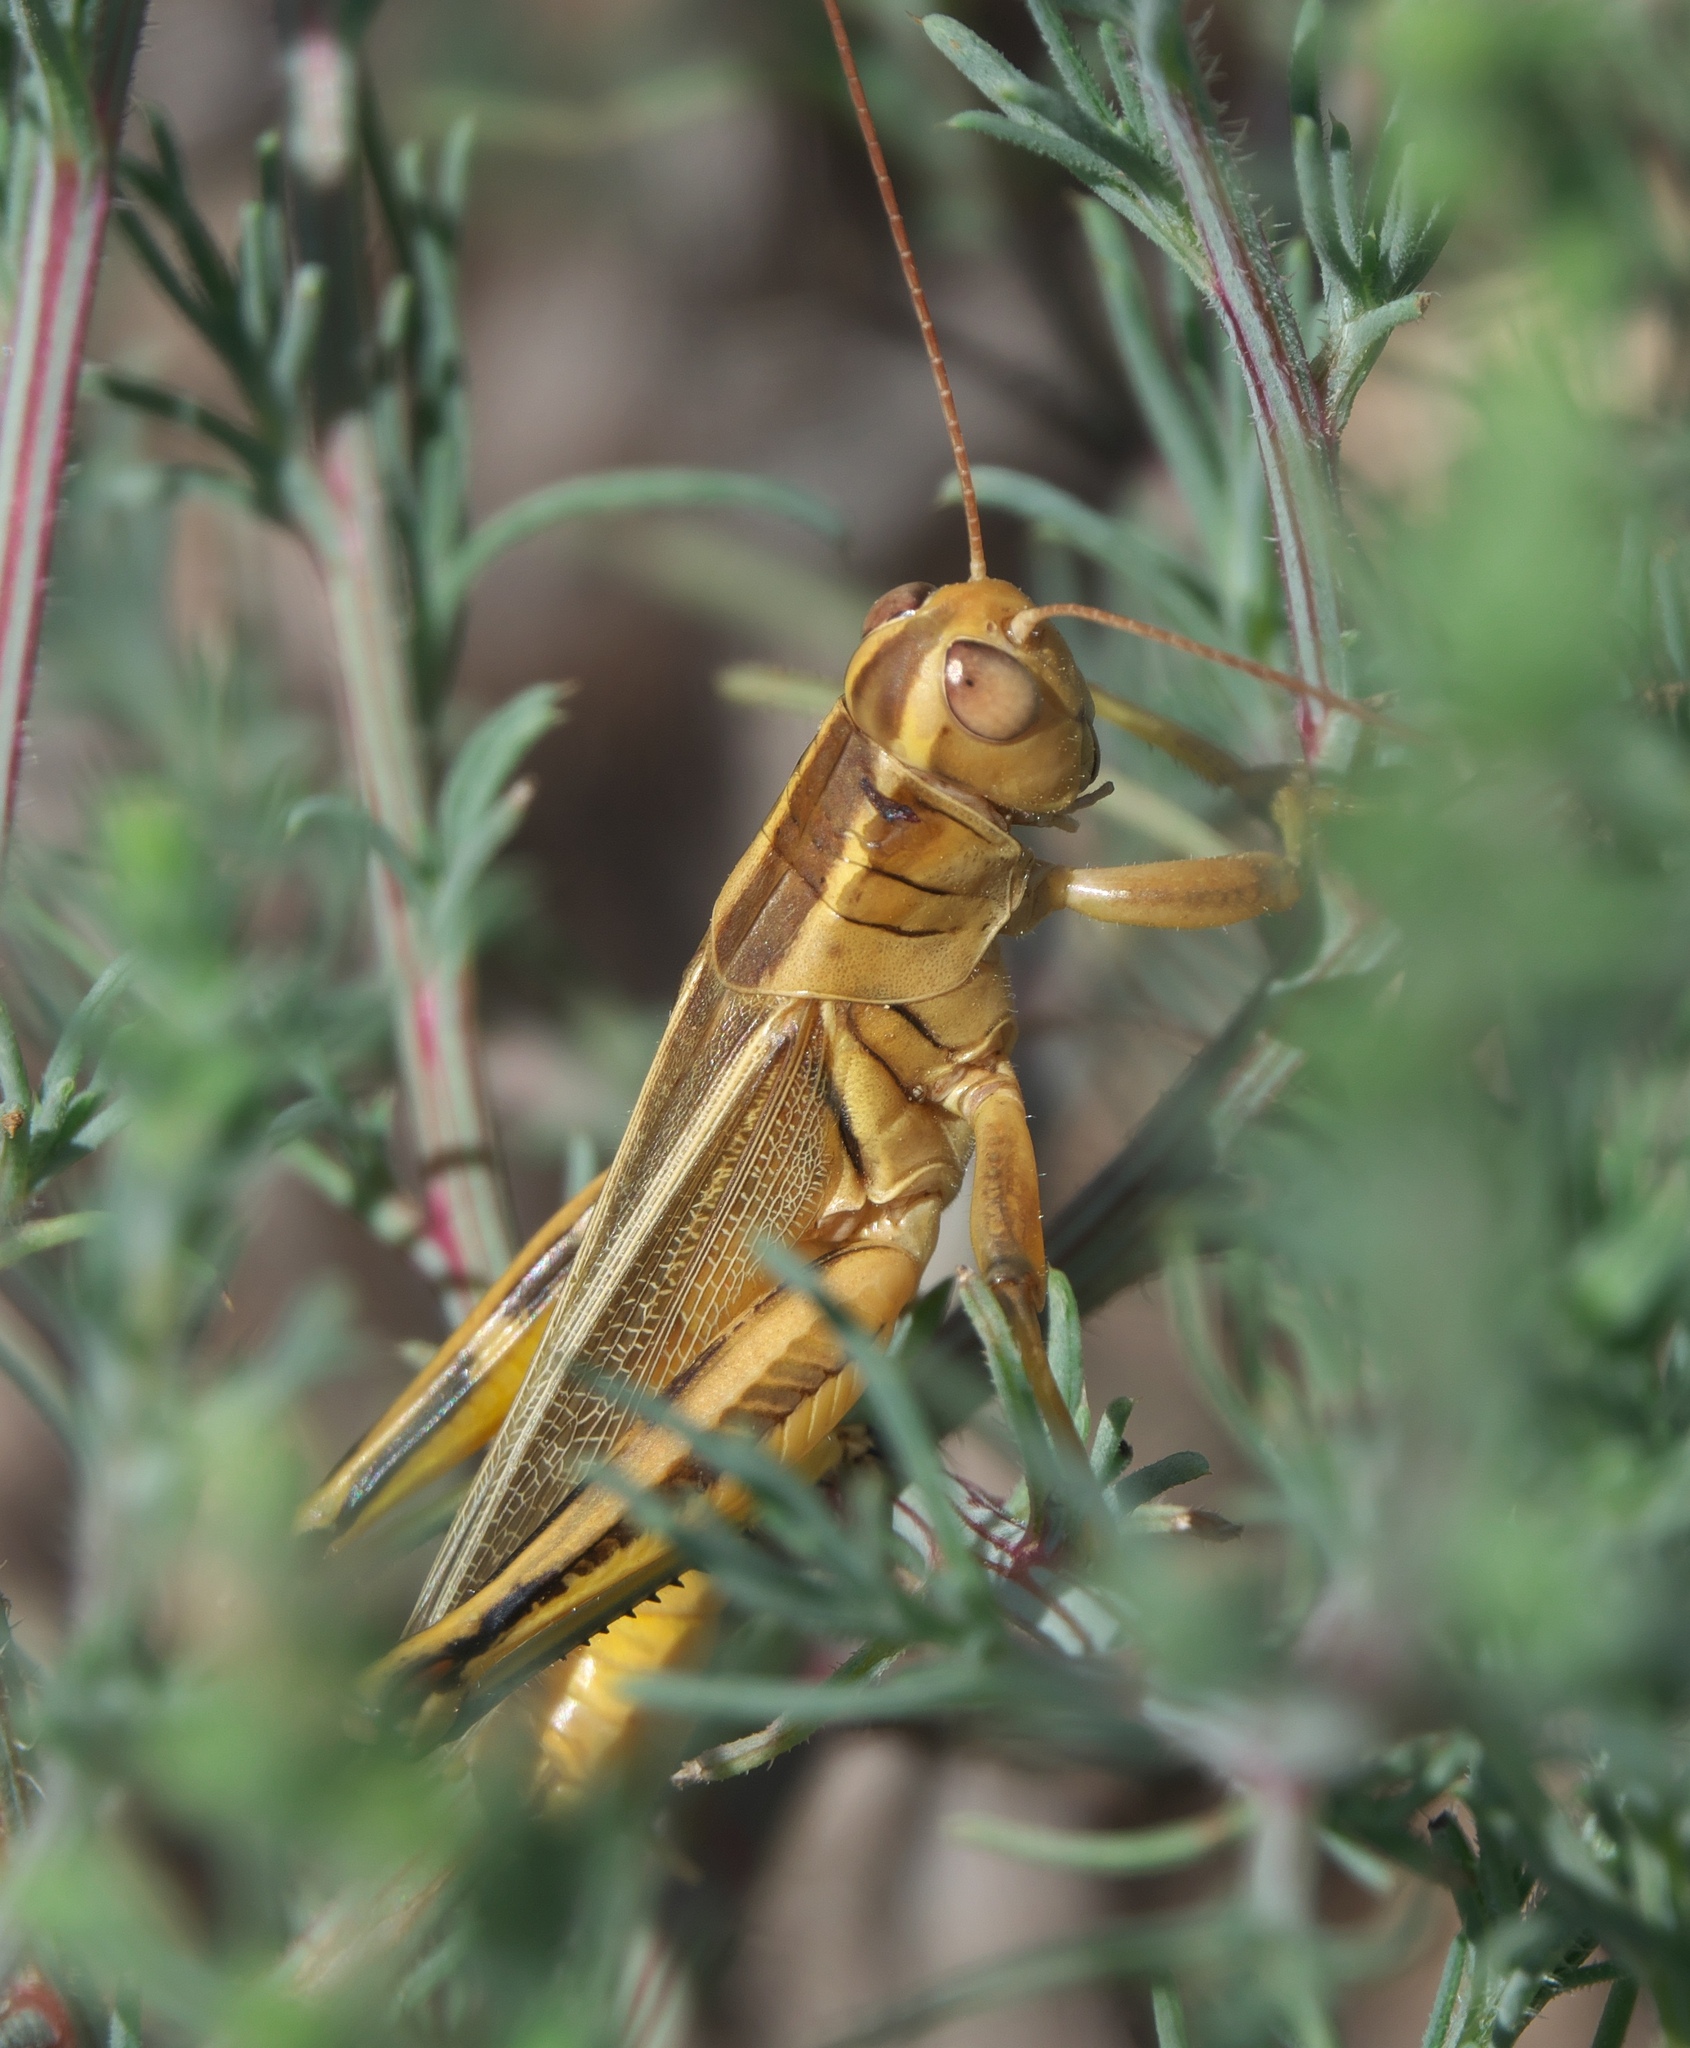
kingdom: Animalia
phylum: Arthropoda
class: Insecta
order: Orthoptera
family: Acrididae
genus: Melanoplus
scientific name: Melanoplus bivittatus
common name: Two-striped grasshopper
